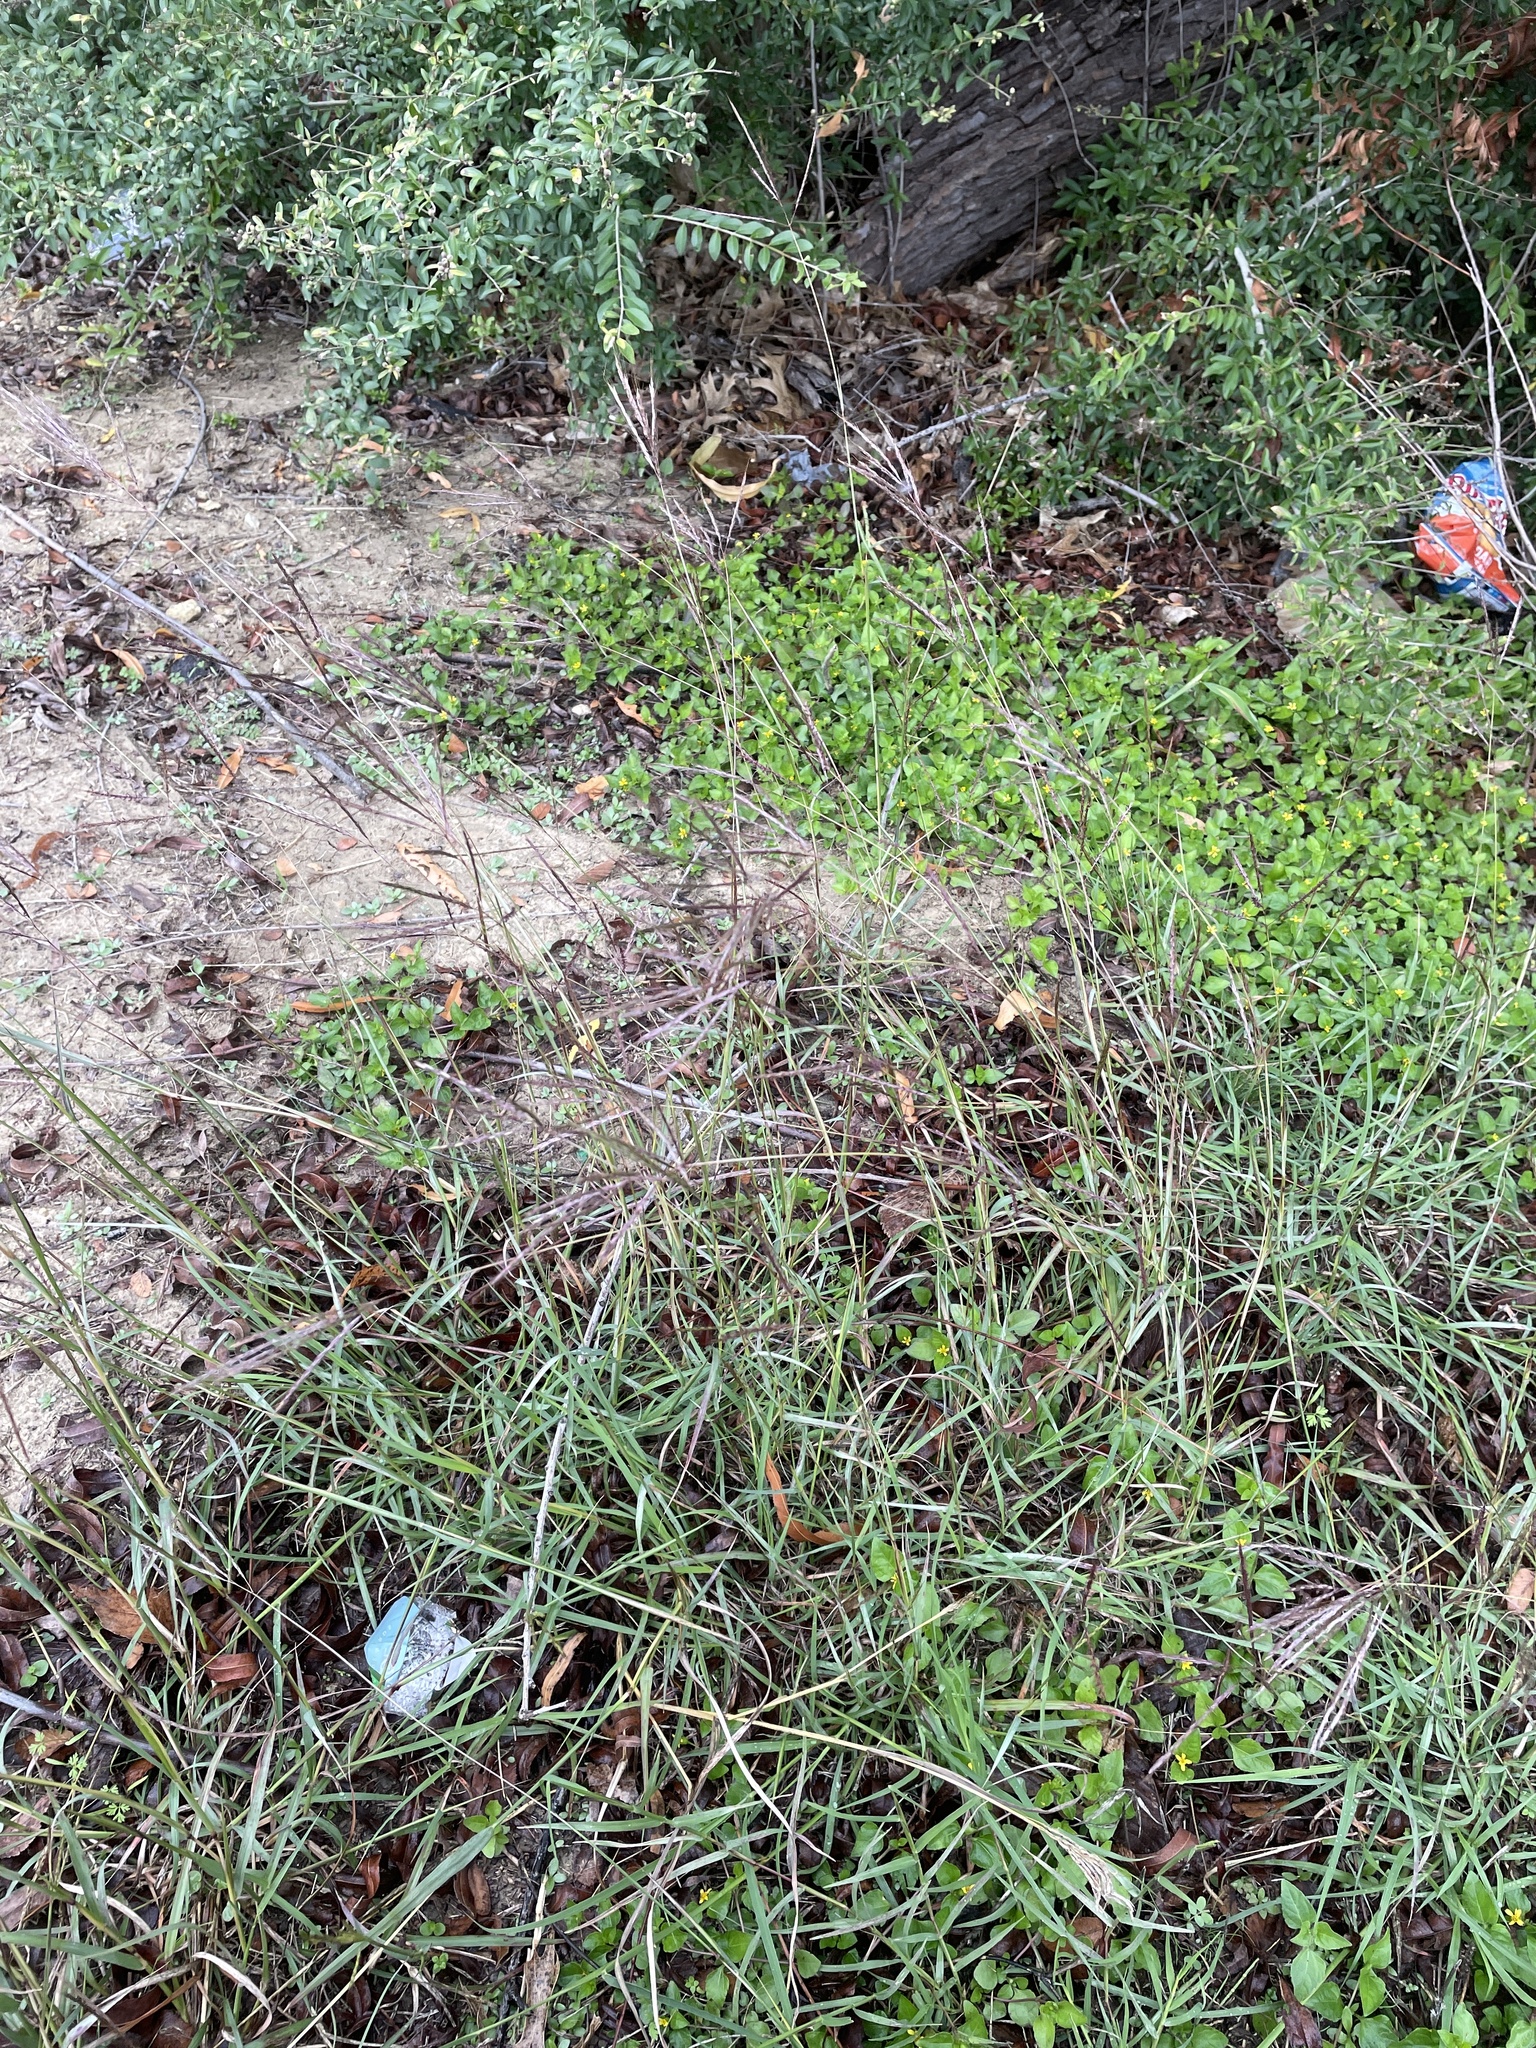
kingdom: Plantae
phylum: Tracheophyta
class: Liliopsida
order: Poales
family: Poaceae
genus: Bothriochloa
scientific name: Bothriochloa ischaemum
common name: Yellow bluestem
